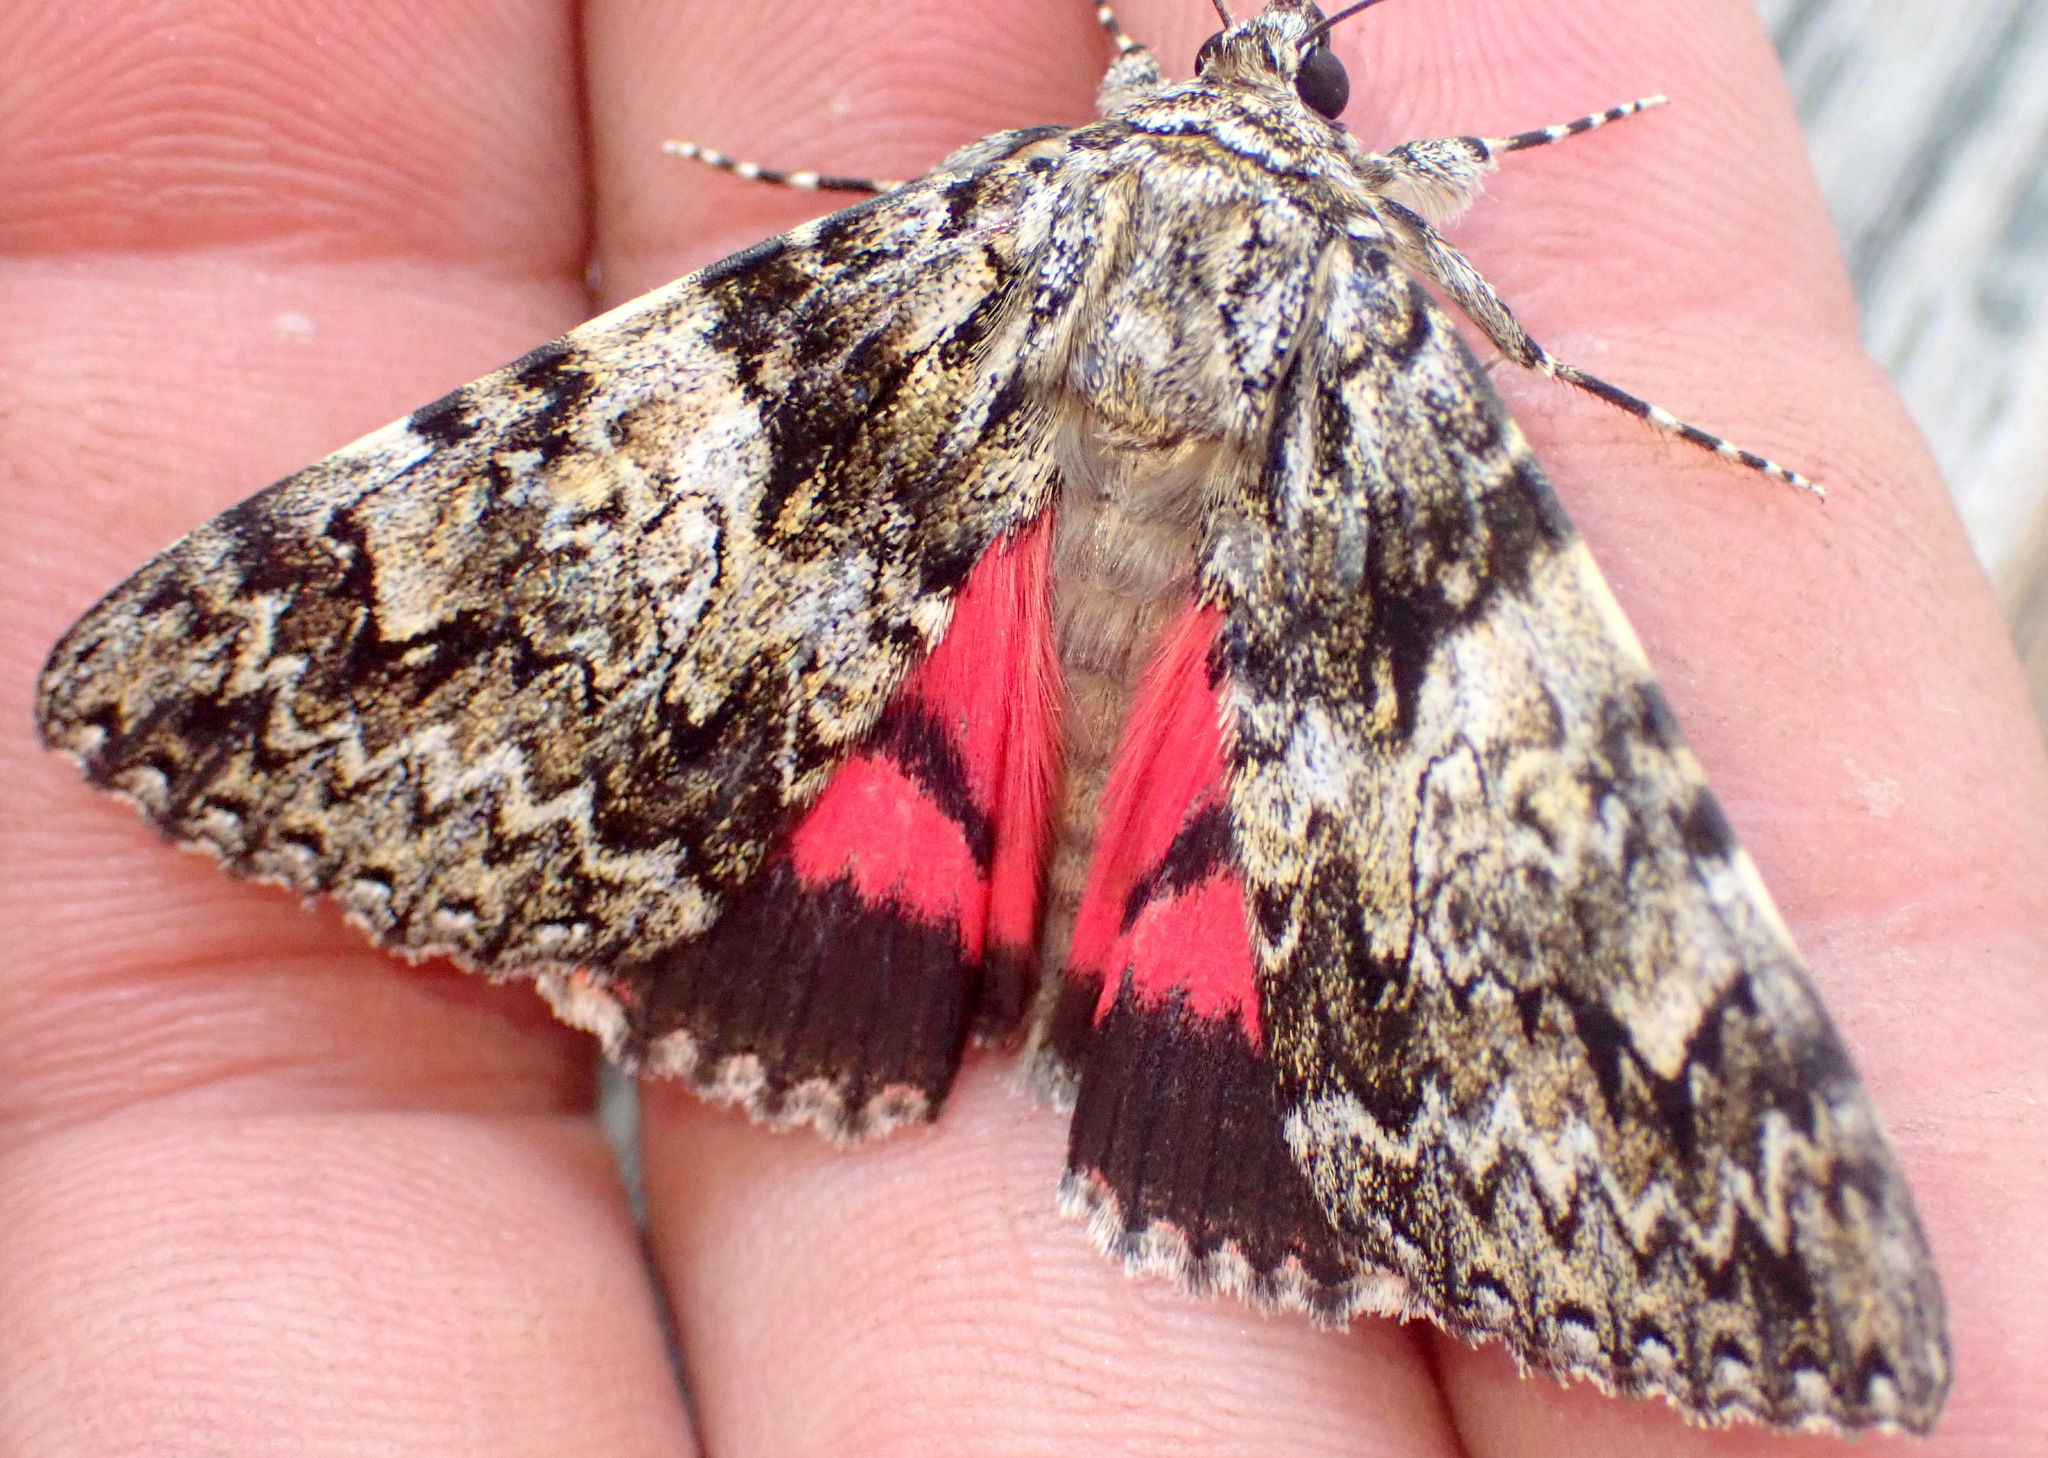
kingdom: Animalia
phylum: Arthropoda
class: Insecta
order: Lepidoptera
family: Erebidae
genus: Catocala
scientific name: Catocala promissa
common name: Light crimson underwing
